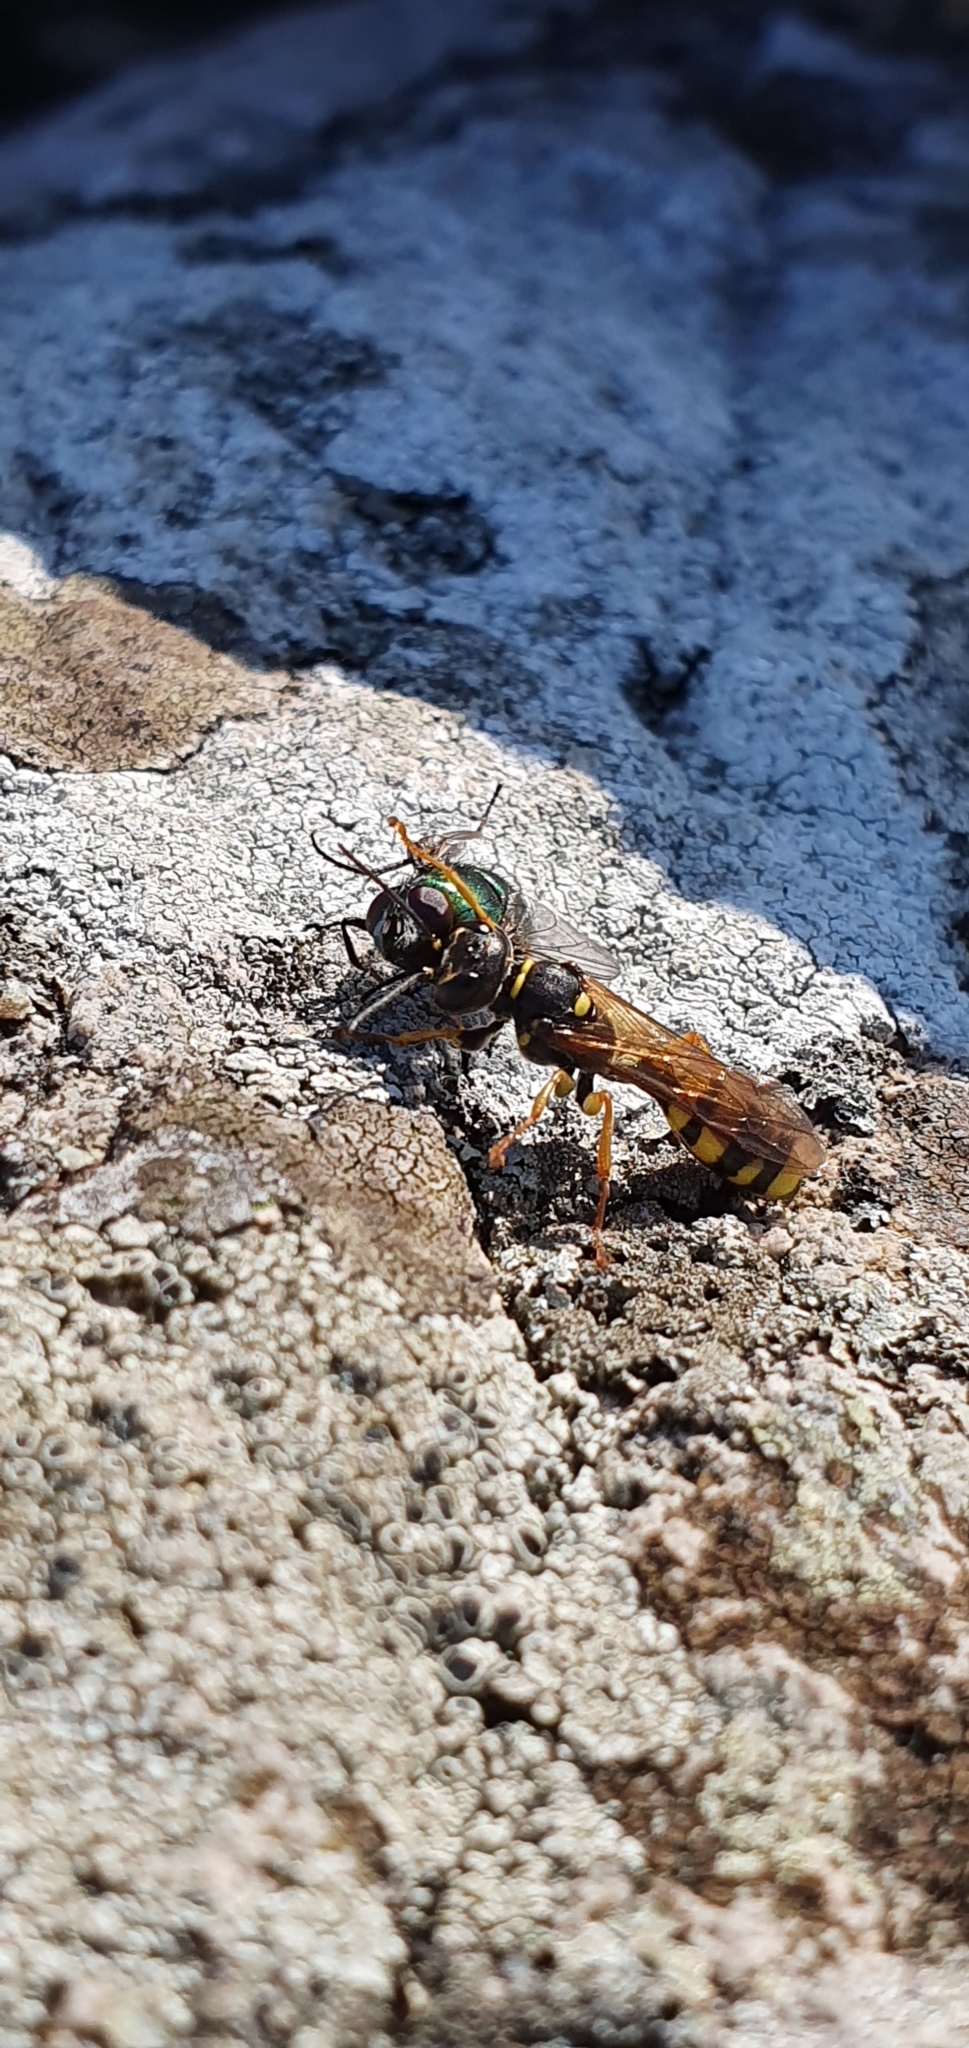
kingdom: Animalia
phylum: Arthropoda
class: Insecta
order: Hymenoptera
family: Crabronidae
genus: Mellinus
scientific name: Mellinus arvensis
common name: Field digger wasp
